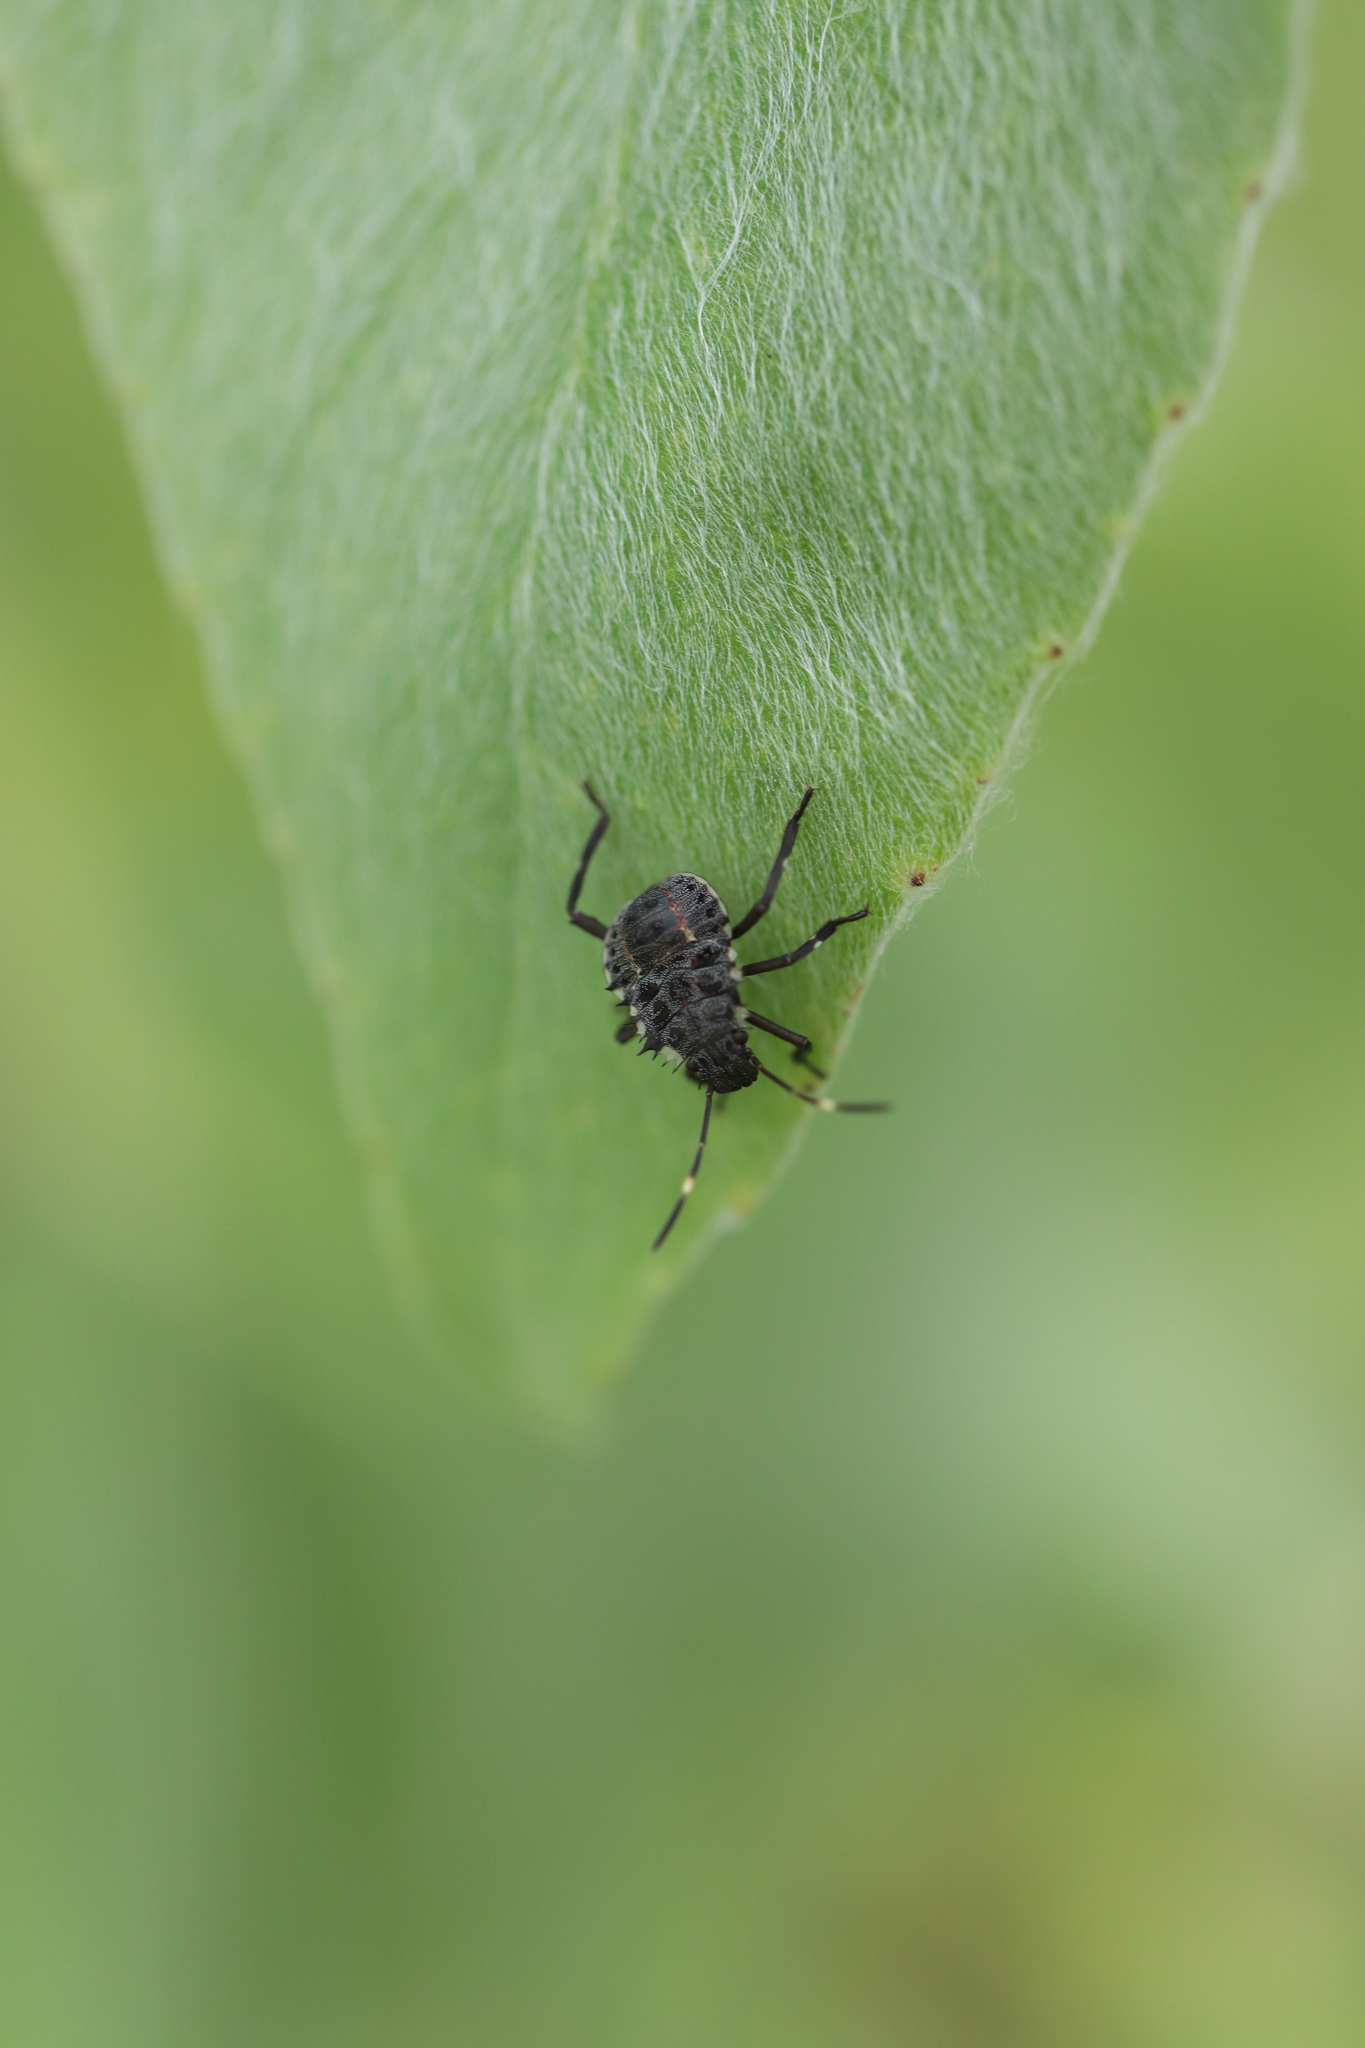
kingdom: Animalia
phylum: Arthropoda
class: Insecta
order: Hemiptera
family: Pentatomidae
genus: Halyomorpha
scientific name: Halyomorpha halys
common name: Brown marmorated stink bug
